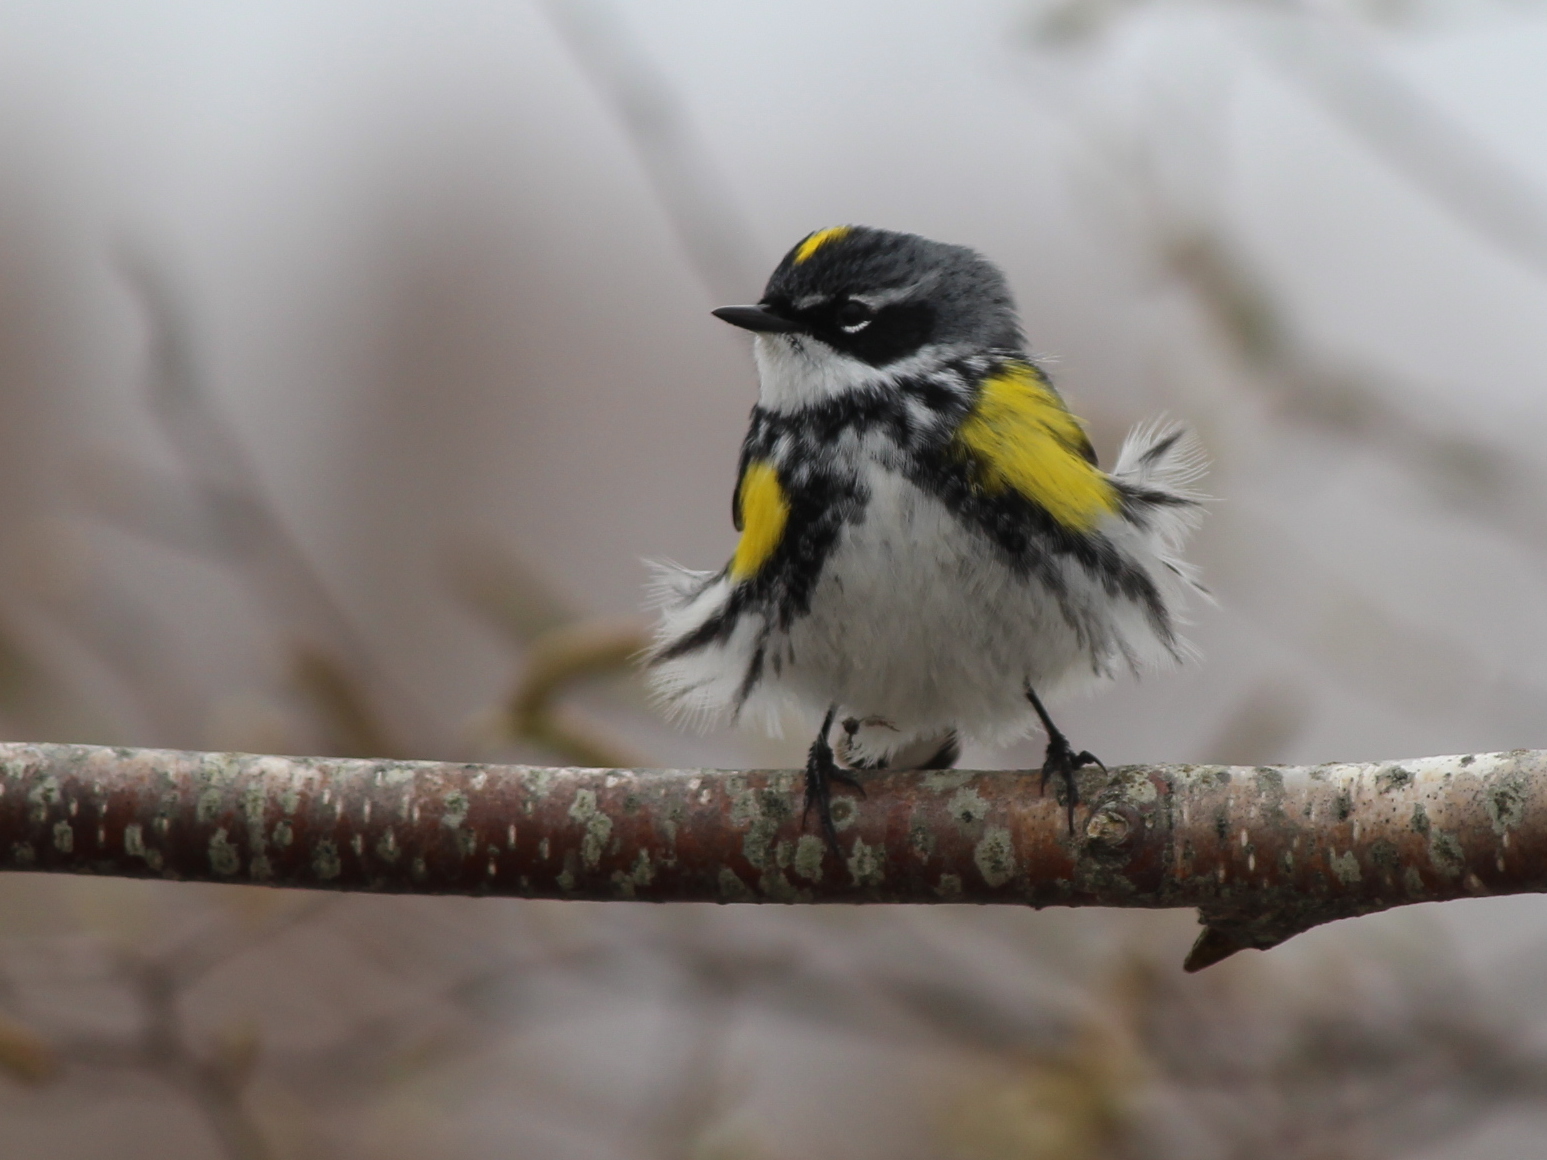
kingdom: Animalia
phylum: Chordata
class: Aves
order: Passeriformes
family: Parulidae
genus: Setophaga
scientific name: Setophaga coronata
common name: Myrtle warbler
